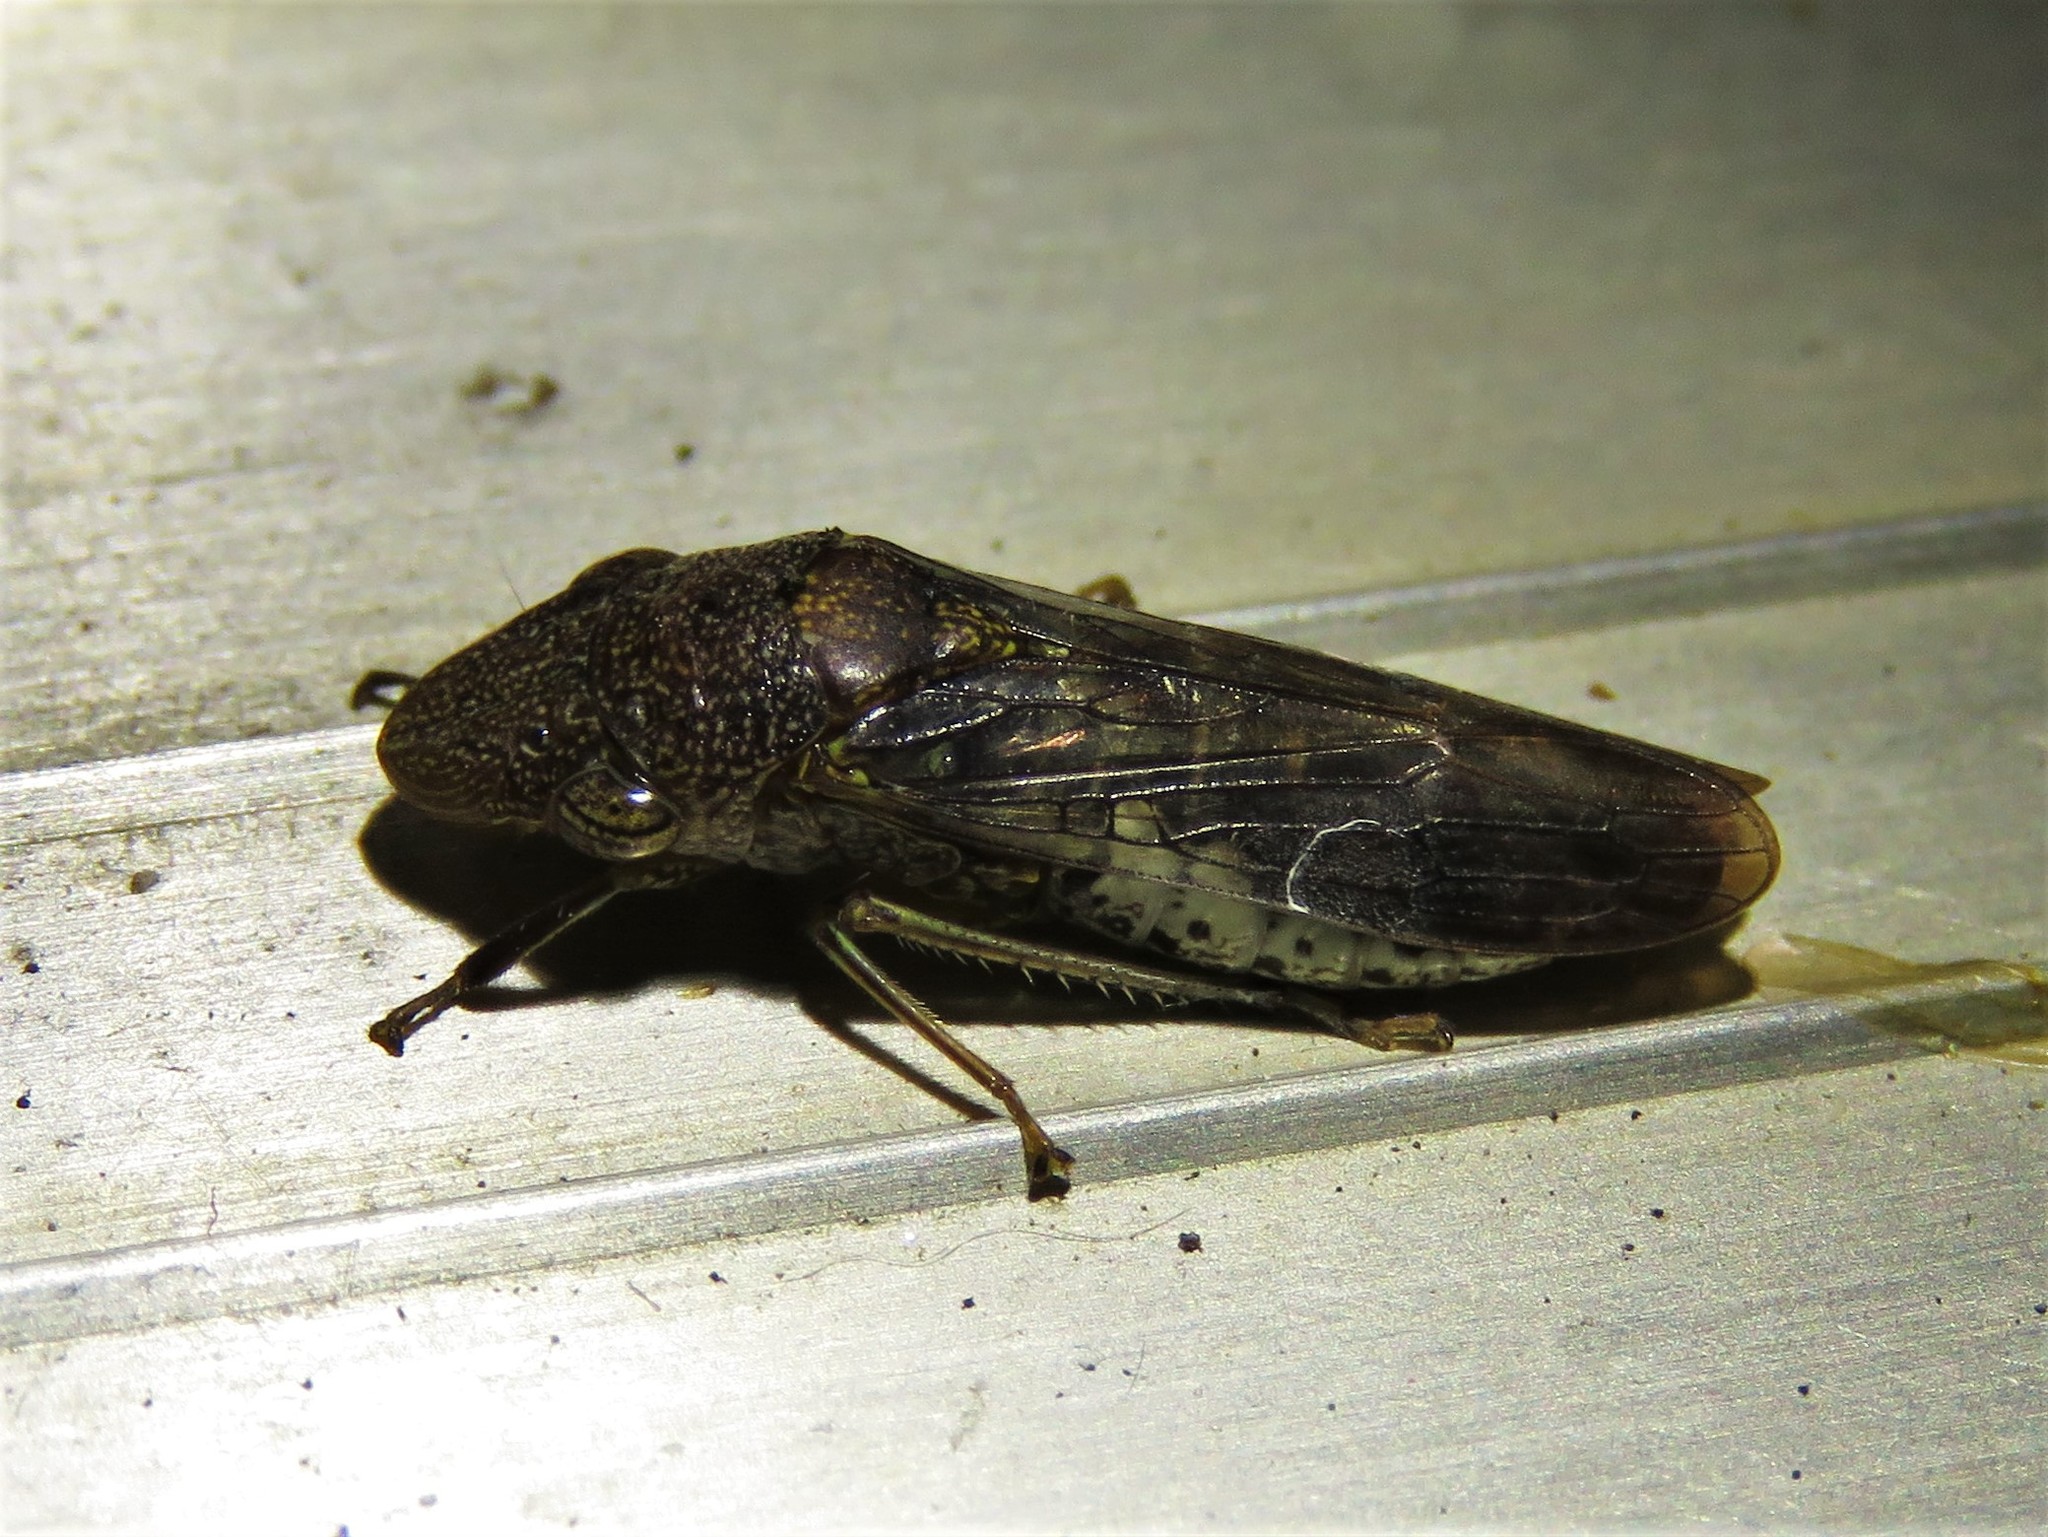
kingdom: Animalia
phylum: Arthropoda
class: Insecta
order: Hemiptera
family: Cicadellidae
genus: Homalodisca
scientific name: Homalodisca vitripennis
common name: Glassy-winged sharpshooter
